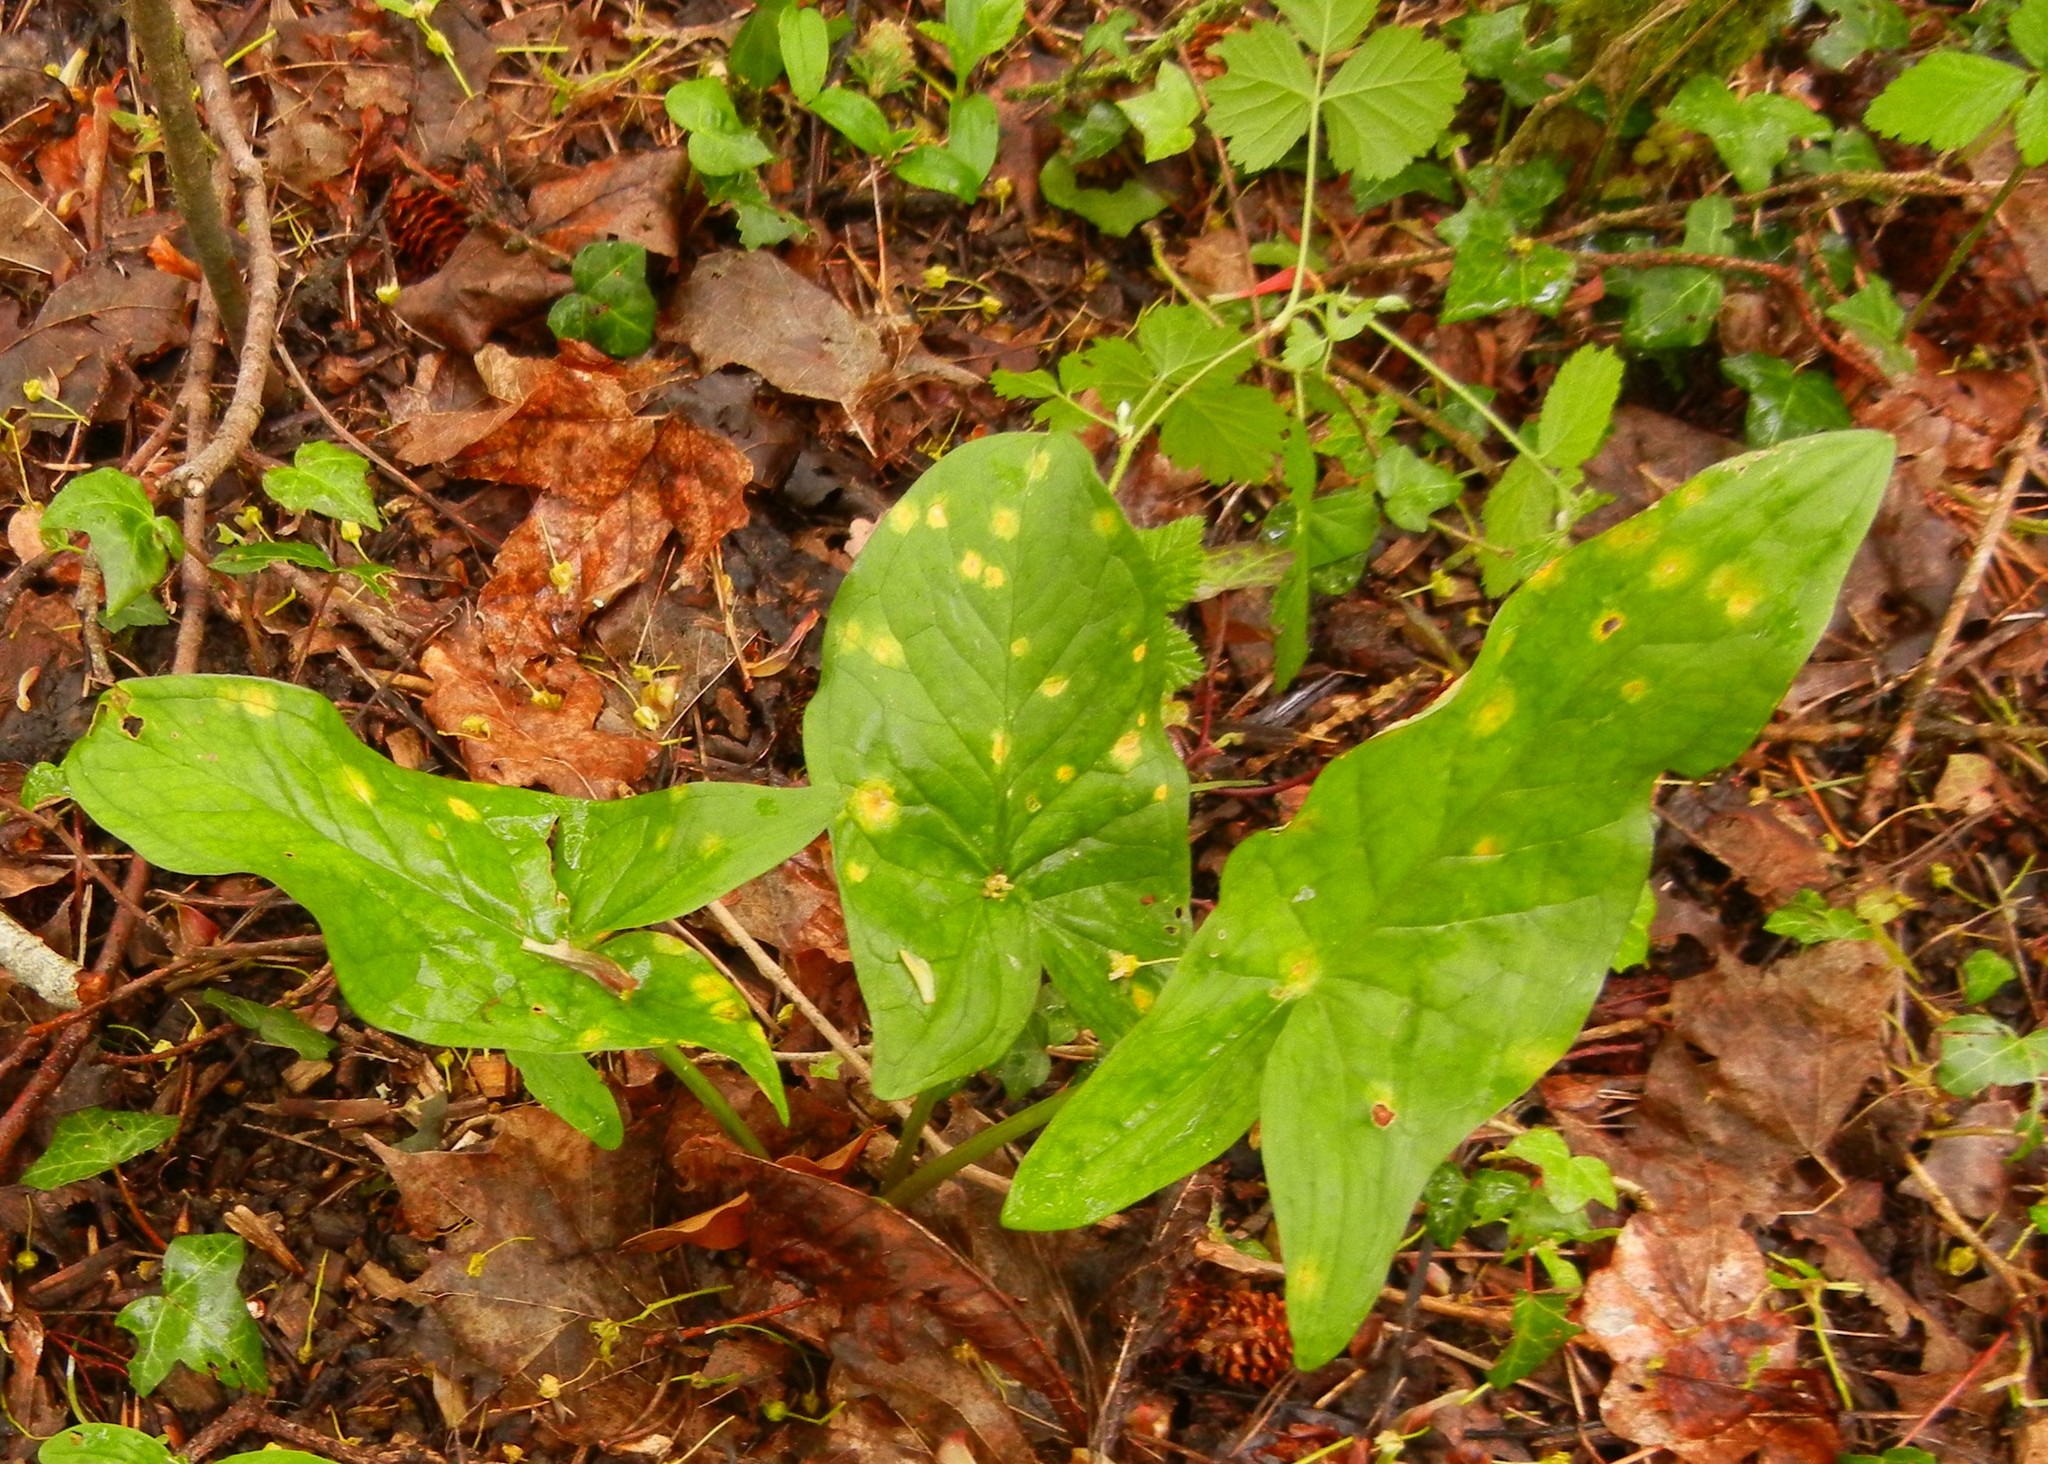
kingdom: Plantae
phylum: Tracheophyta
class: Liliopsida
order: Alismatales
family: Araceae
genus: Arum
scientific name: Arum maculatum
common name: Lords-and-ladies
